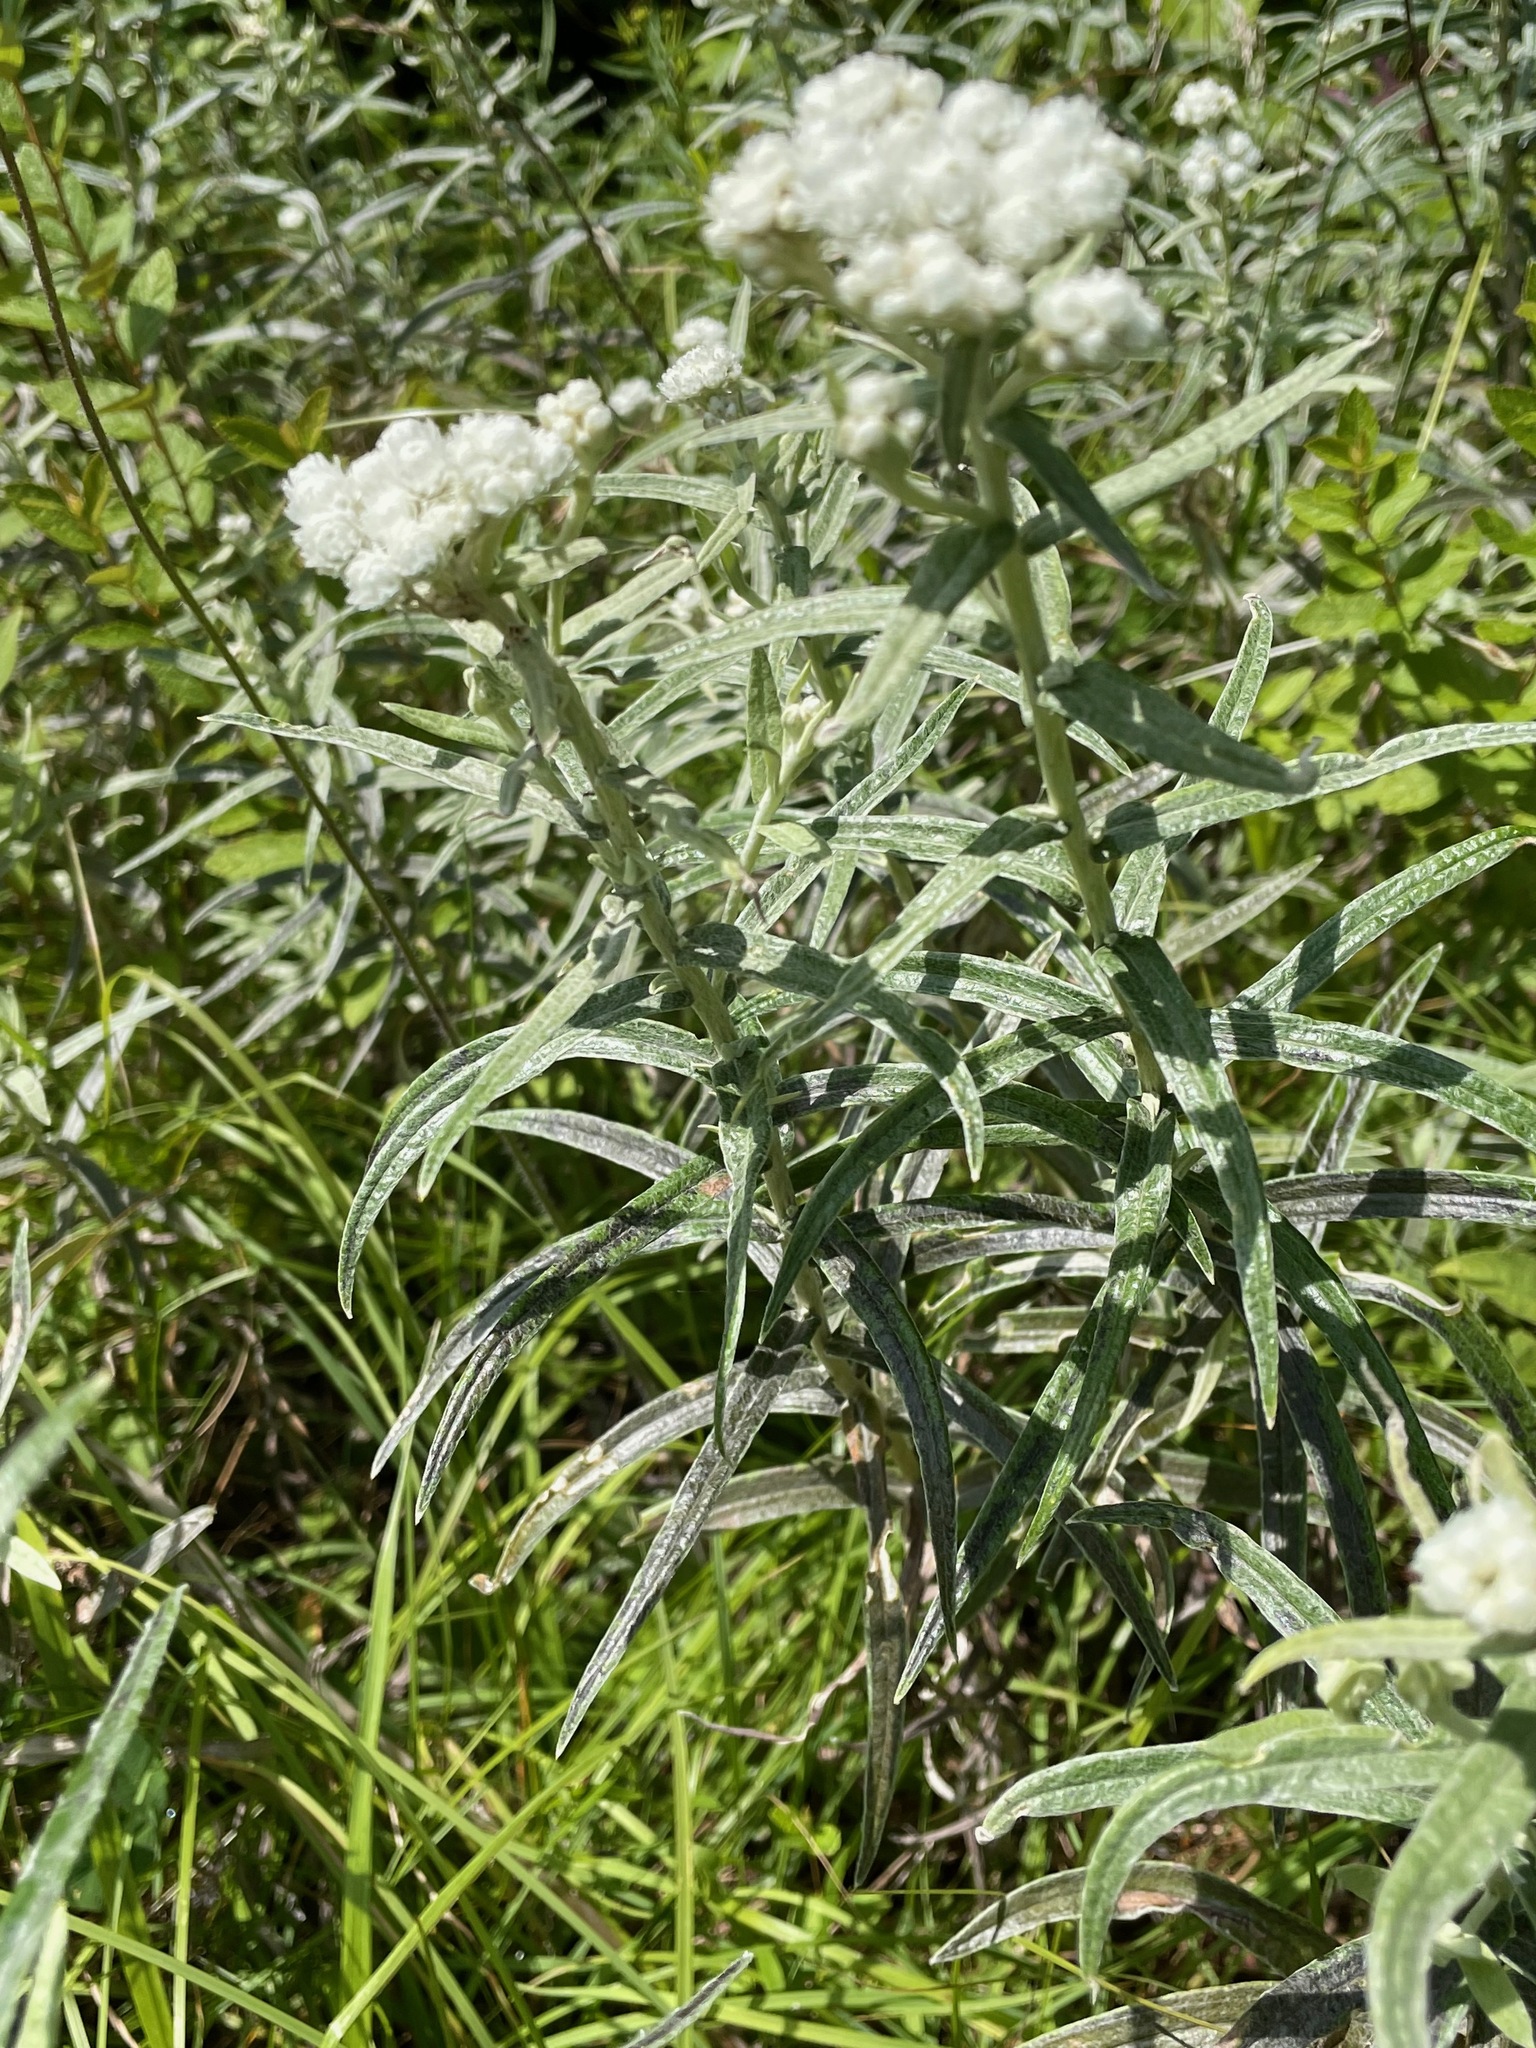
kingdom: Plantae
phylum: Tracheophyta
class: Magnoliopsida
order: Asterales
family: Asteraceae
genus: Anaphalis
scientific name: Anaphalis margaritacea
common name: Pearly everlasting
